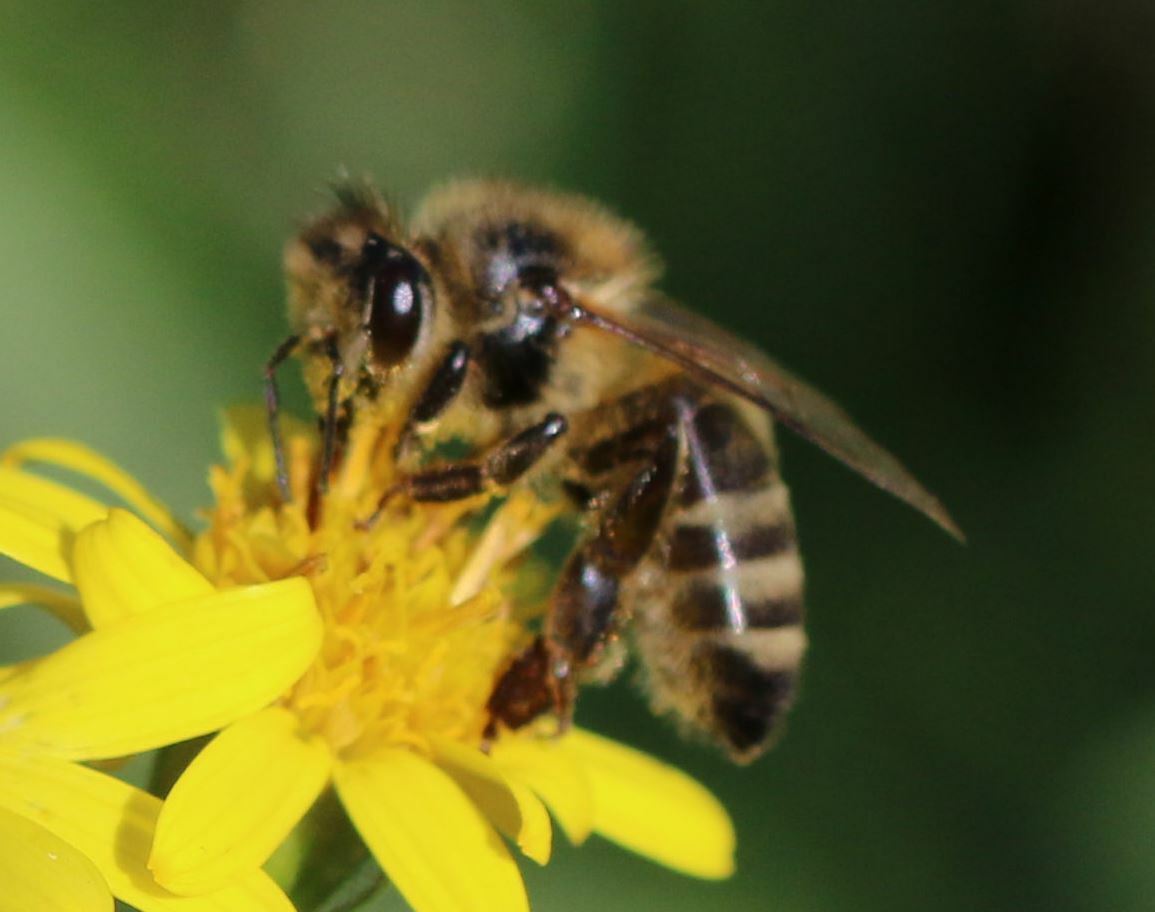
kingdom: Animalia
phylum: Arthropoda
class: Insecta
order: Hymenoptera
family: Apidae
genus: Apis
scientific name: Apis mellifera
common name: Honey bee
